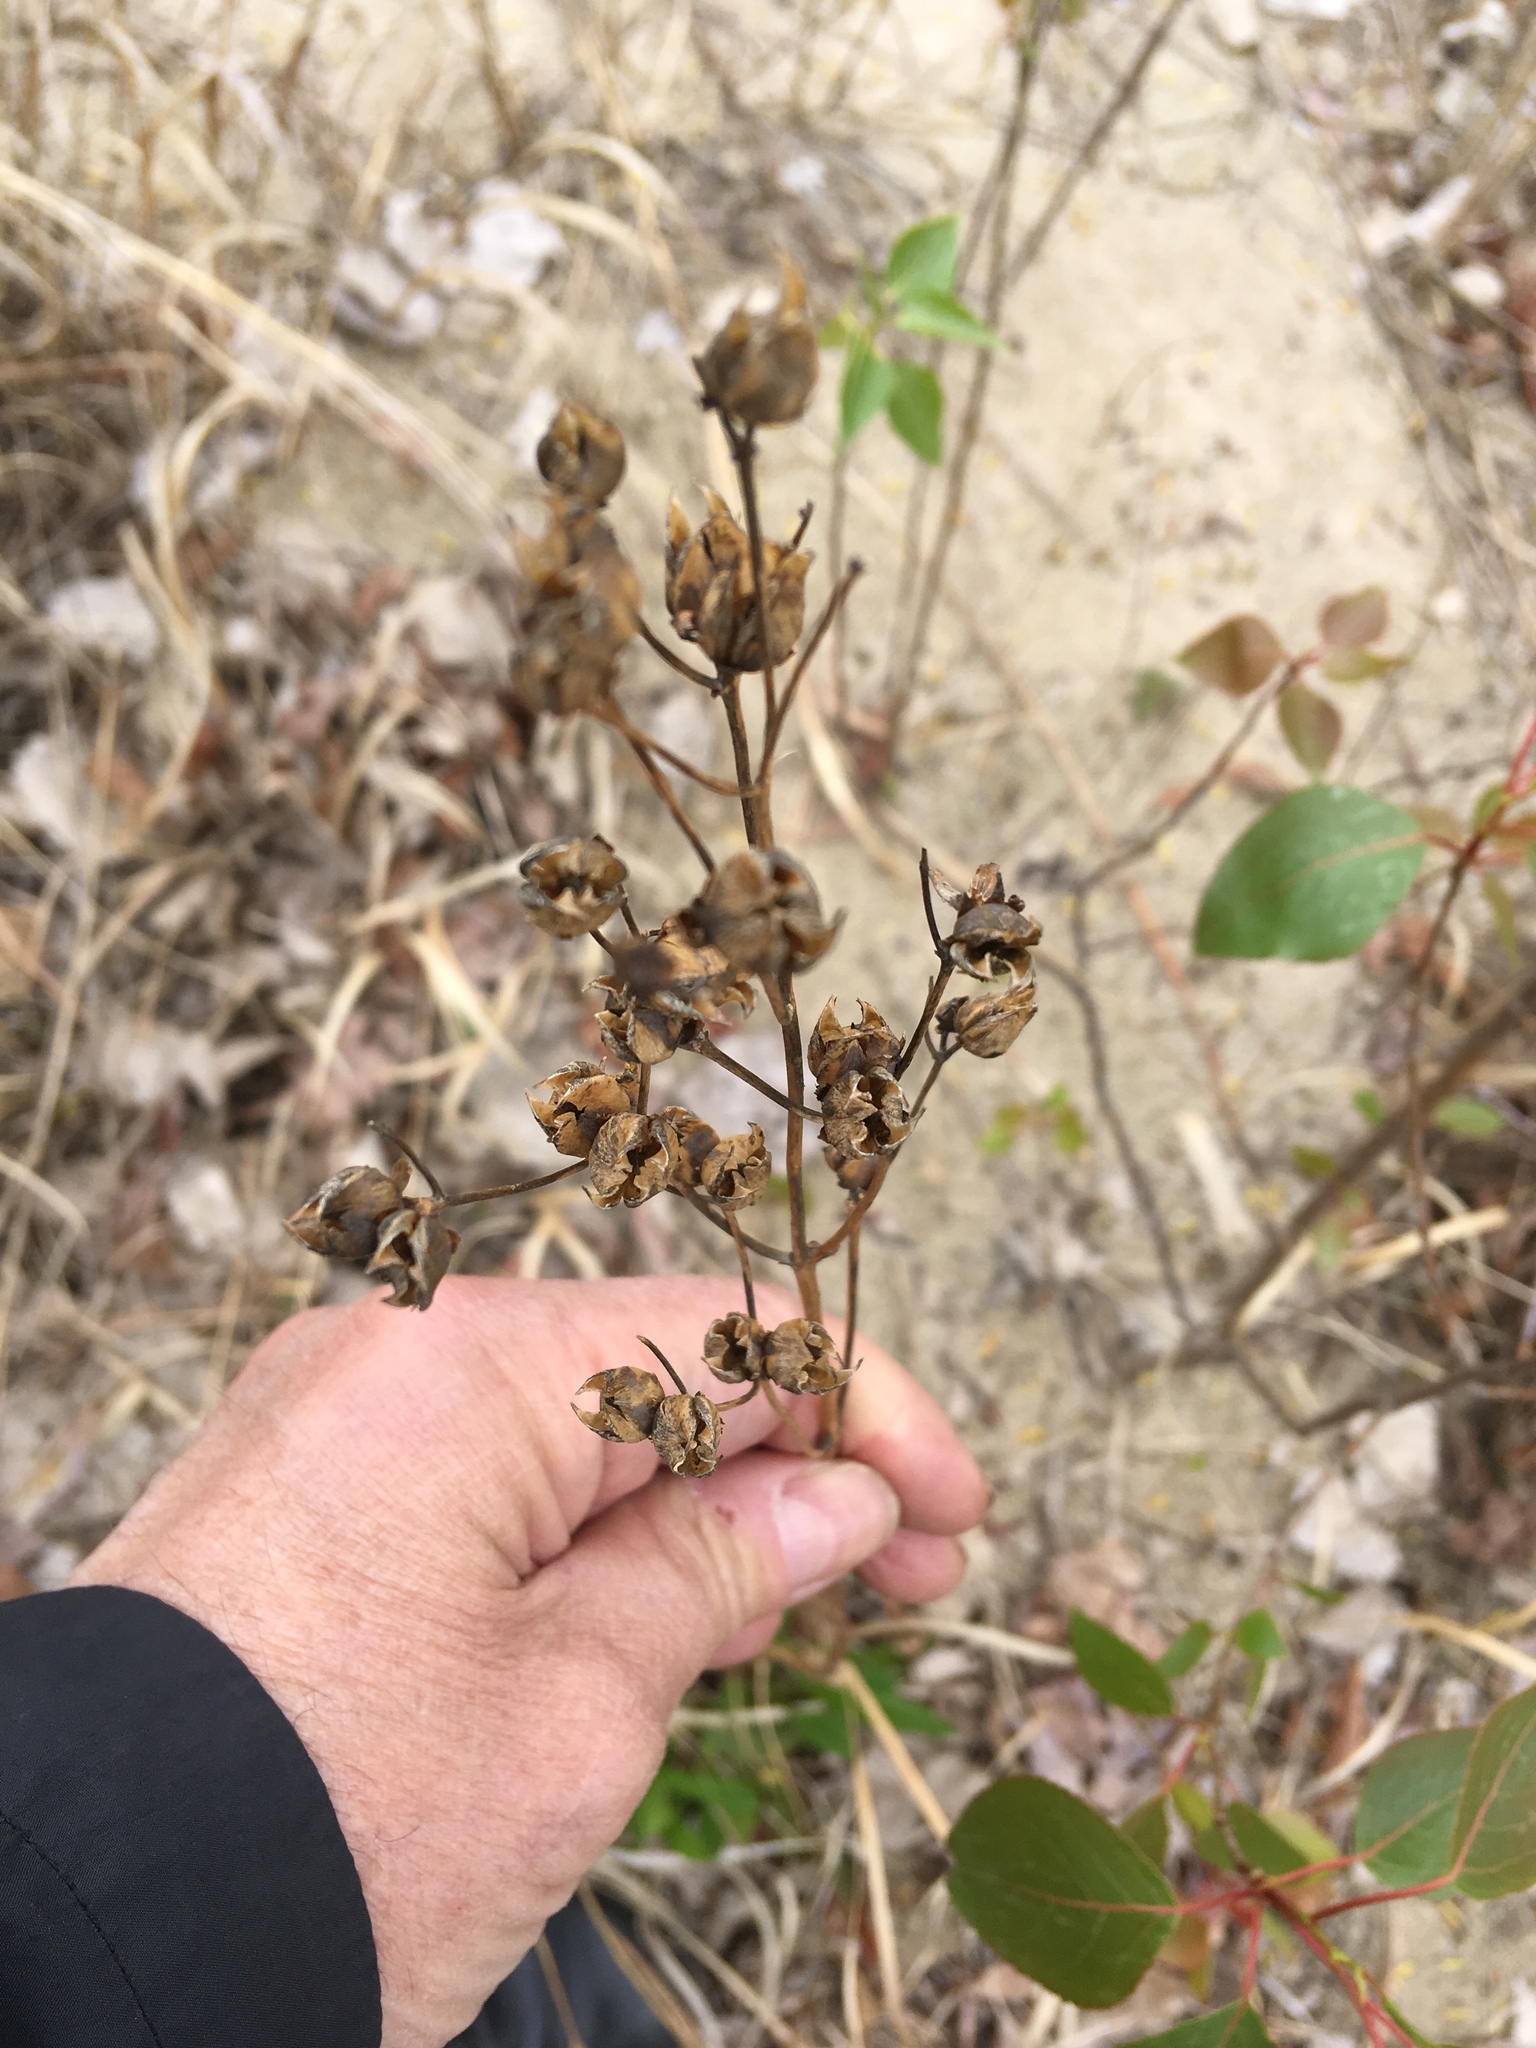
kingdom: Plantae
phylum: Tracheophyta
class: Magnoliopsida
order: Lamiales
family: Plantaginaceae
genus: Penstemon
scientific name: Penstemon digitalis
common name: Foxglove beardtongue
